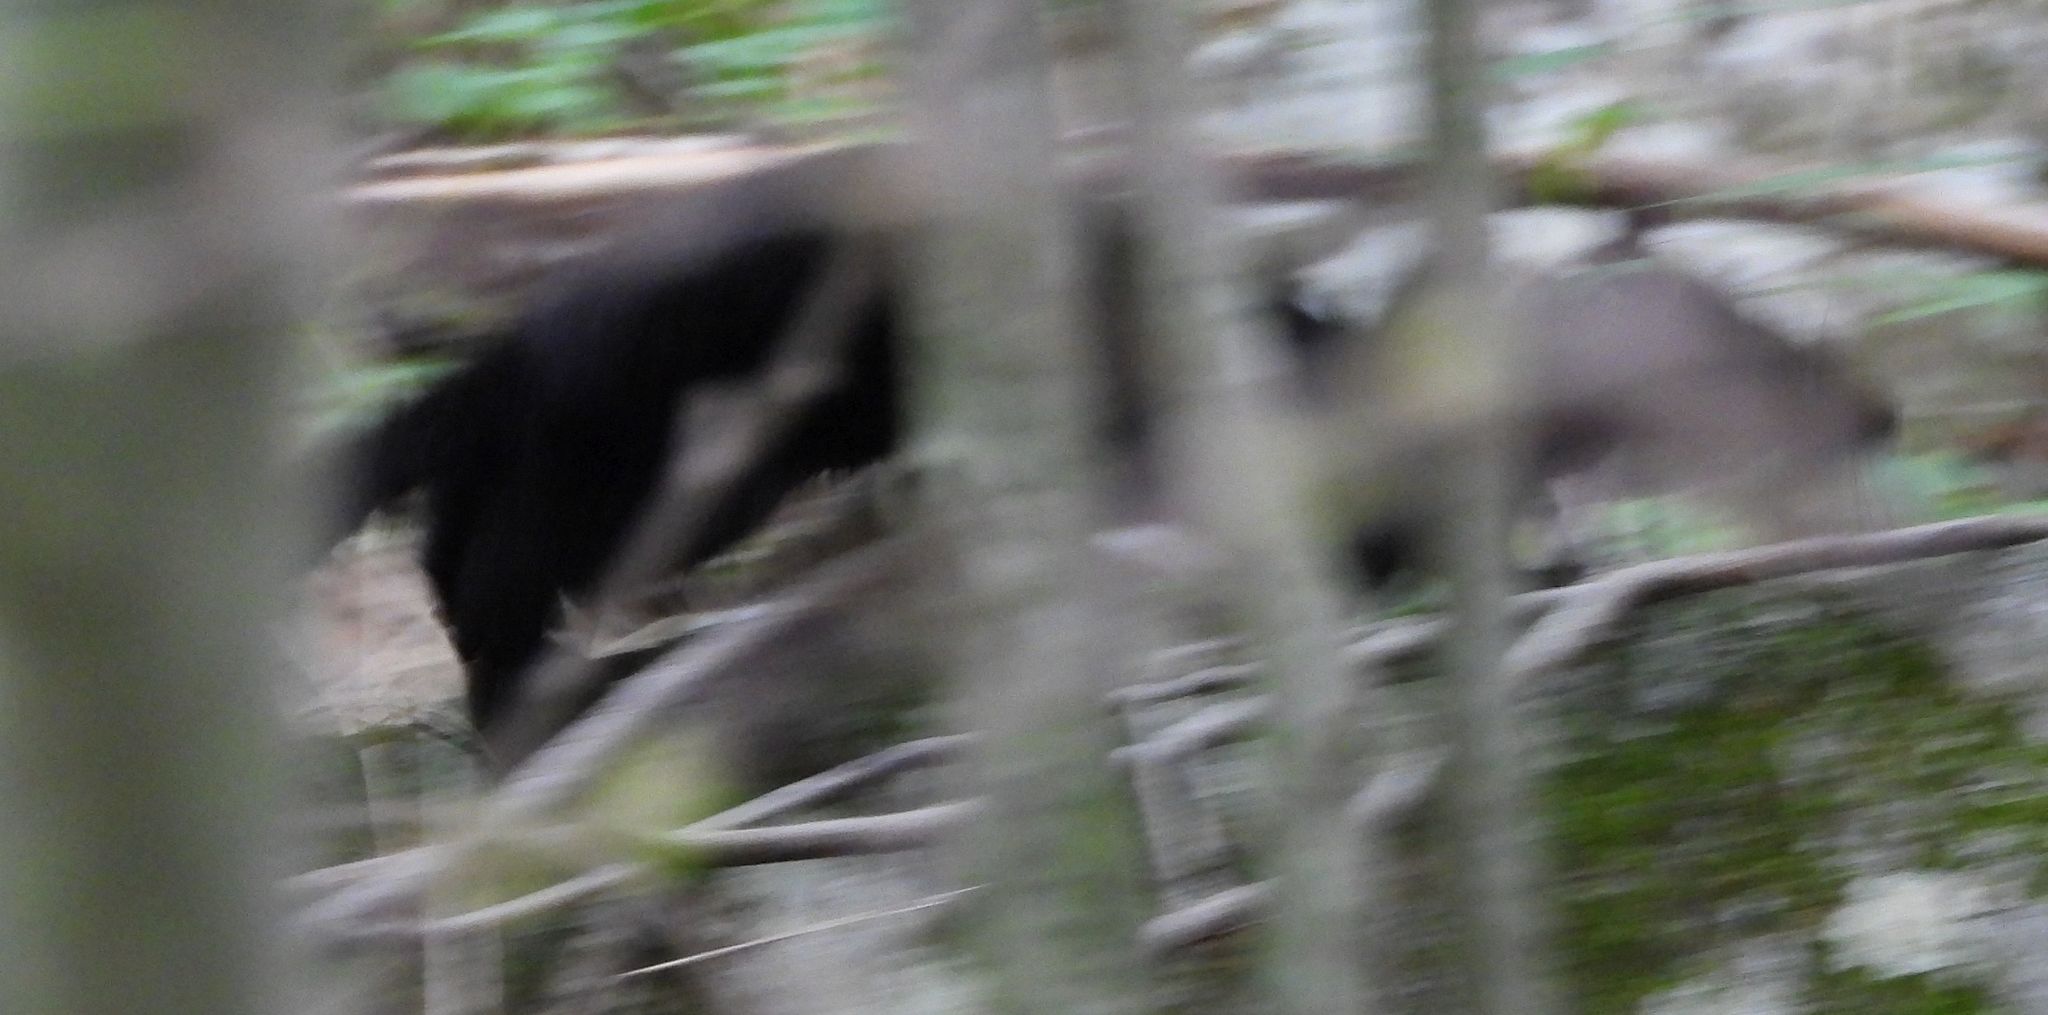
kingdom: Animalia
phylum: Chordata
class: Mammalia
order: Carnivora
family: Mustelidae
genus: Mustela
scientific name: Mustela
